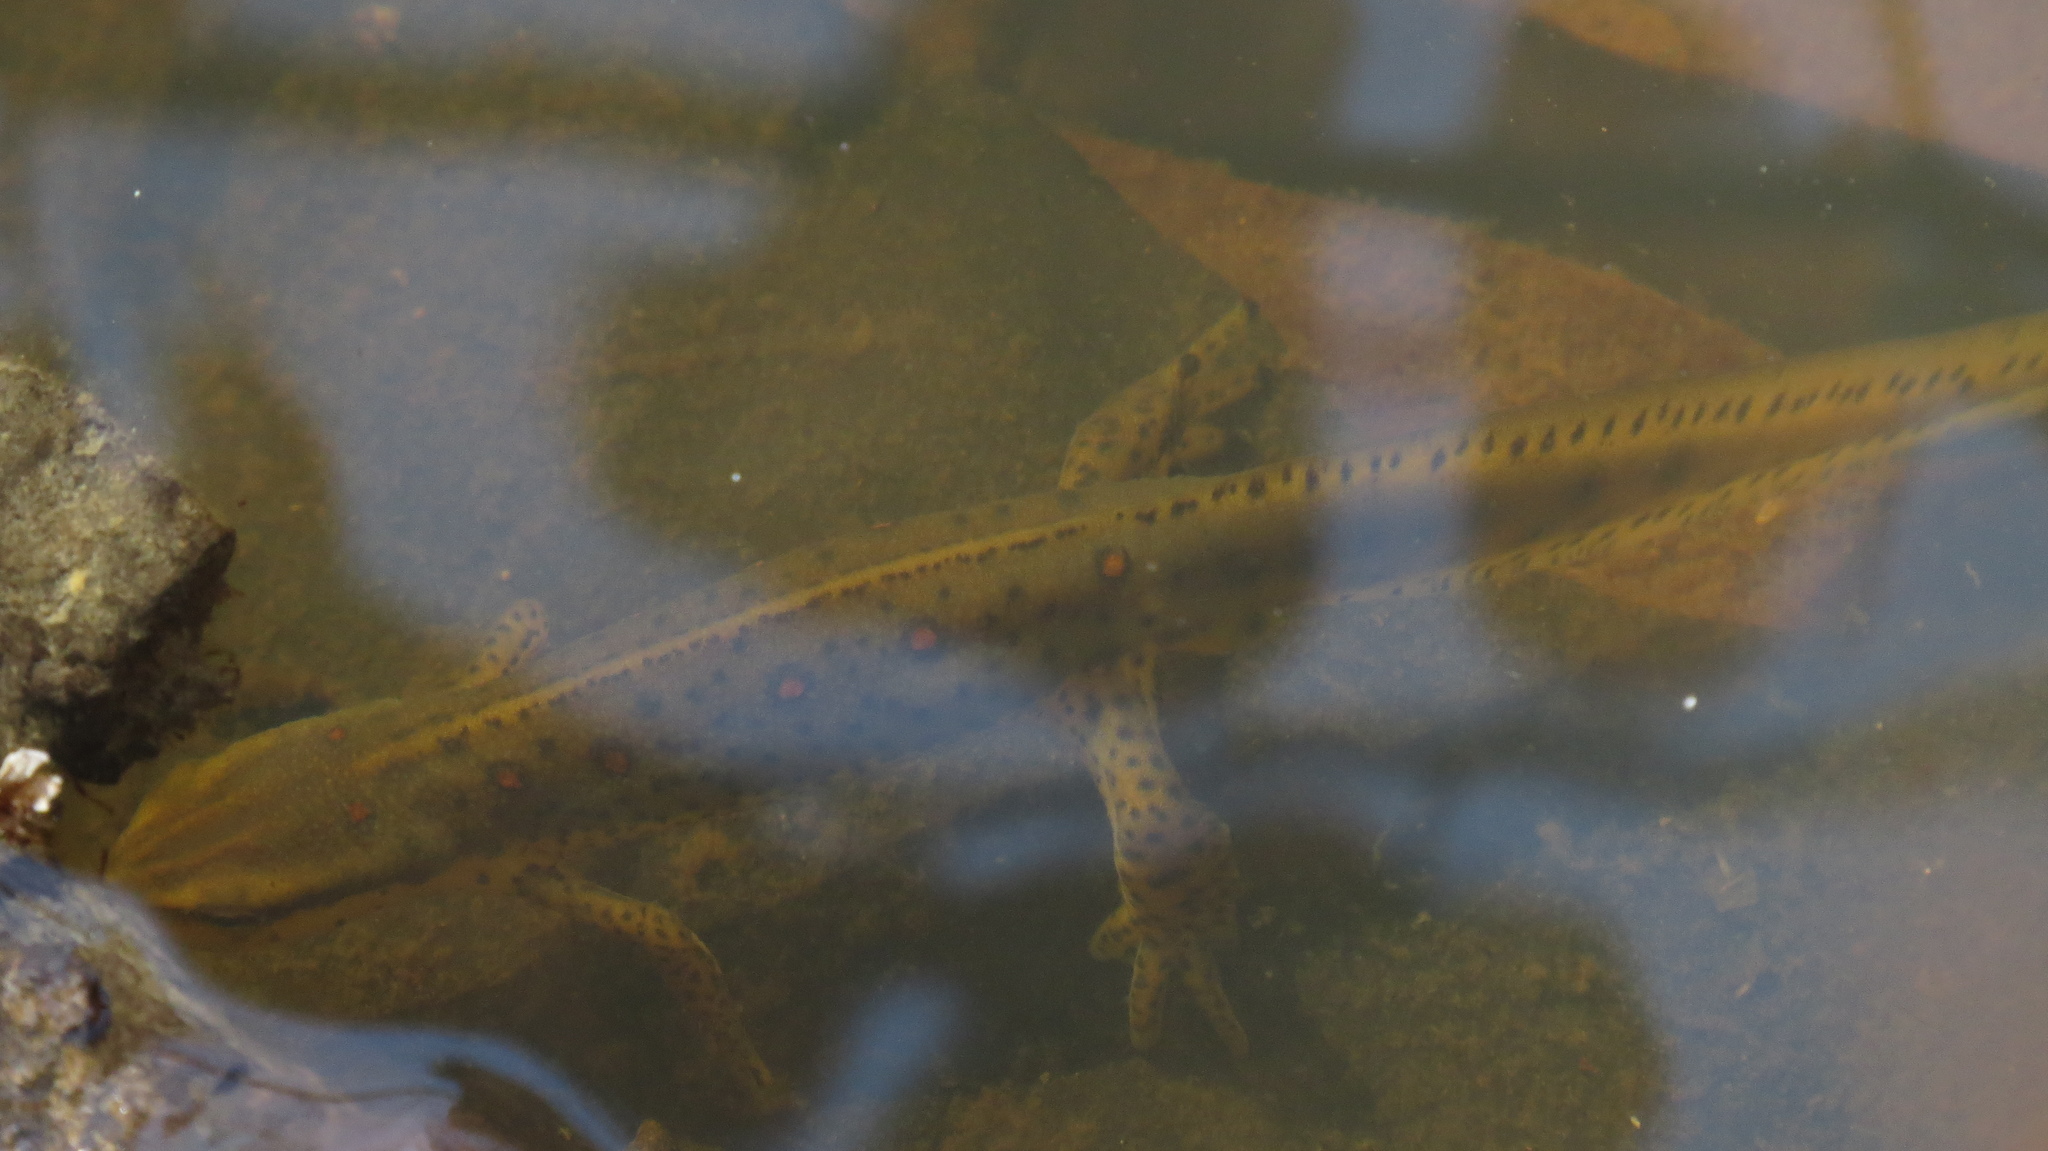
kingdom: Animalia
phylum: Chordata
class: Amphibia
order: Caudata
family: Salamandridae
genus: Notophthalmus
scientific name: Notophthalmus viridescens
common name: Eastern newt
